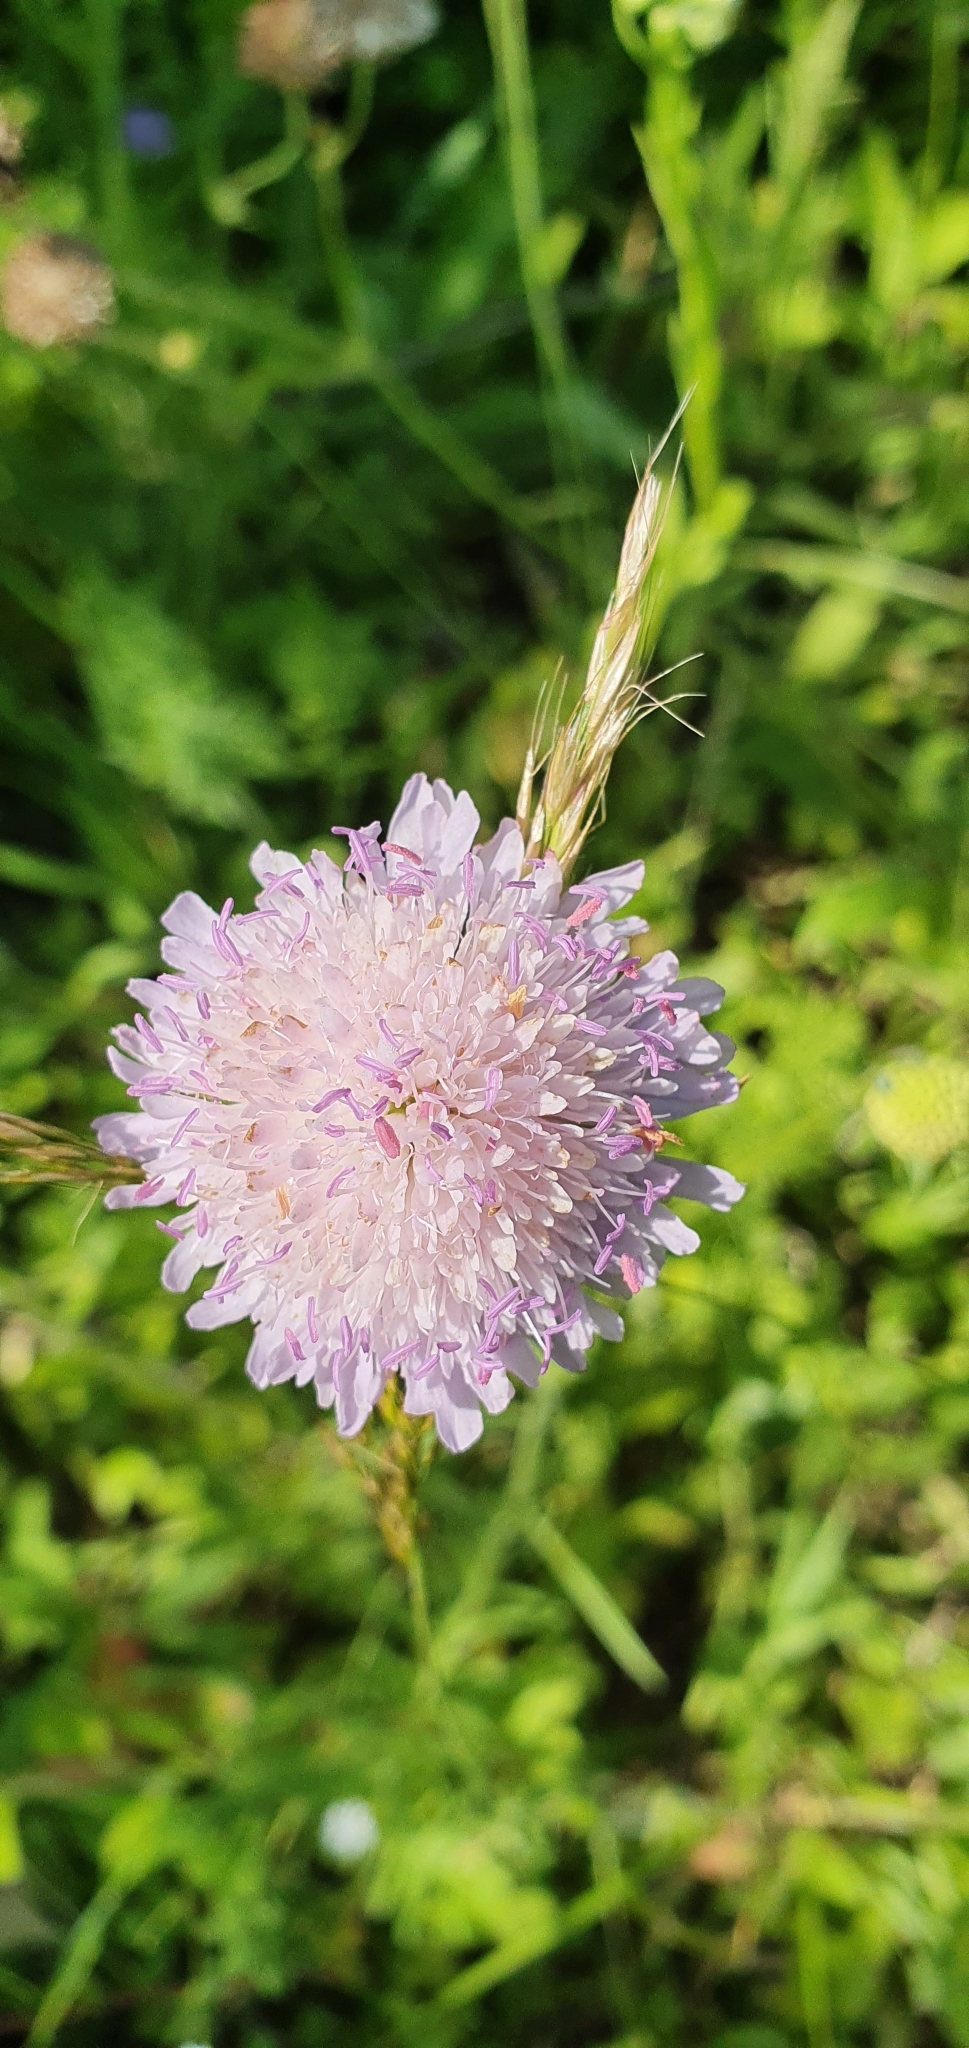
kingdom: Plantae
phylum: Tracheophyta
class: Magnoliopsida
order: Dipsacales
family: Caprifoliaceae
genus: Knautia
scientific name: Knautia arvensis
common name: Field scabiosa
